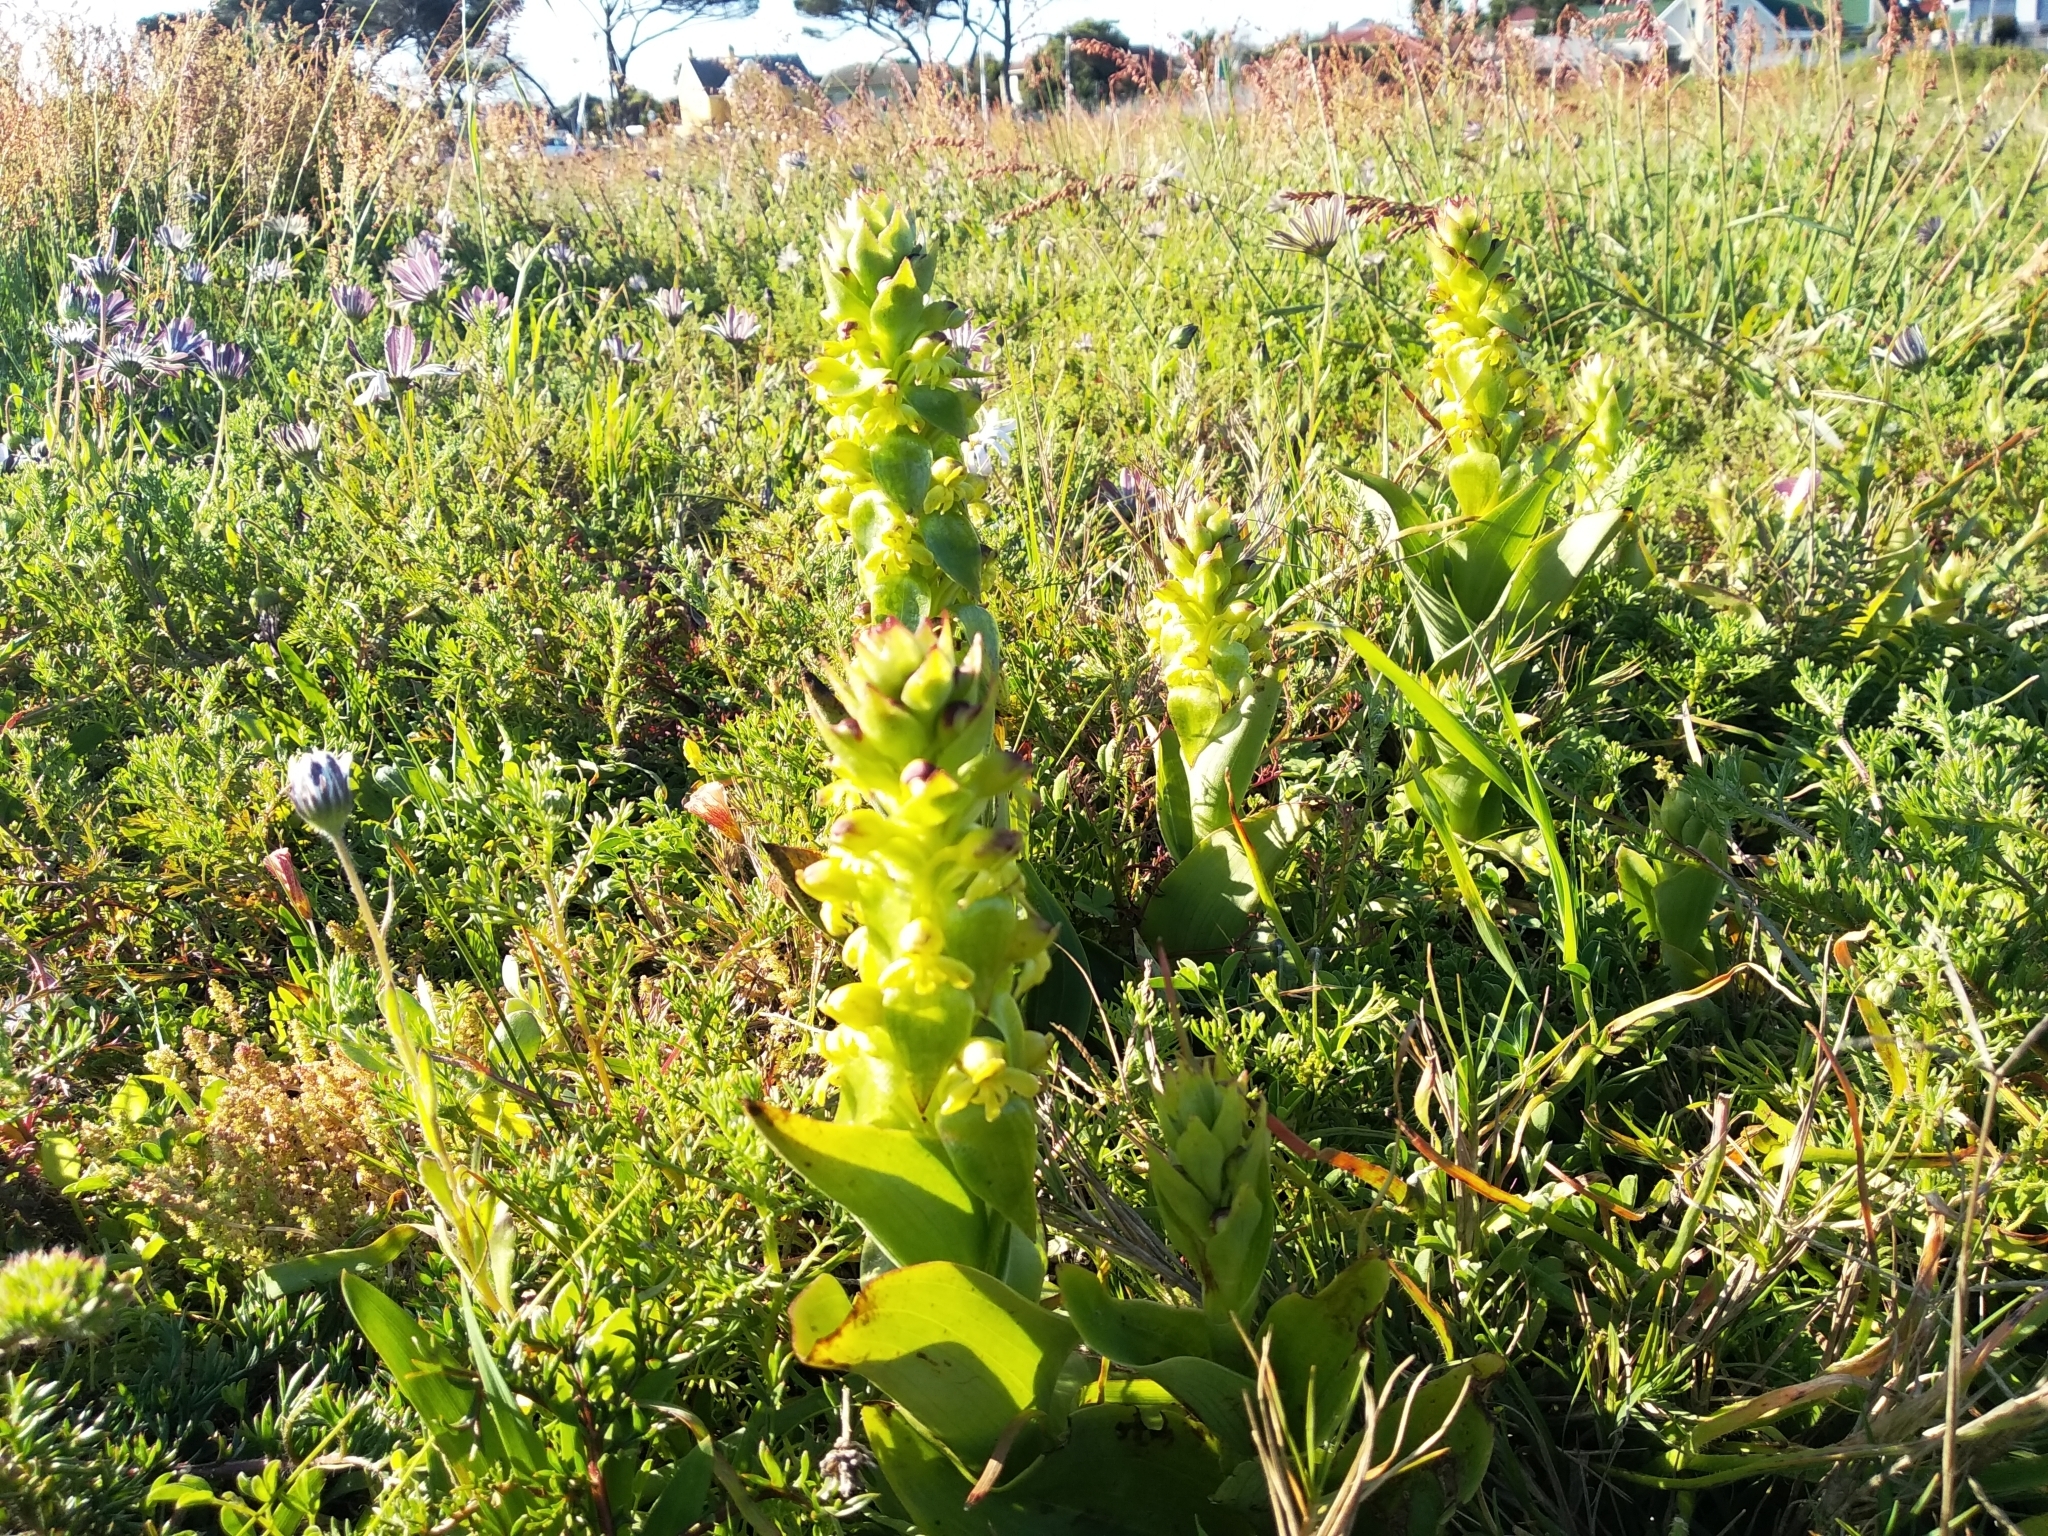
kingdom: Plantae
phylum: Tracheophyta
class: Liliopsida
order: Asparagales
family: Orchidaceae
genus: Satyrium
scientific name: Satyrium odorum
